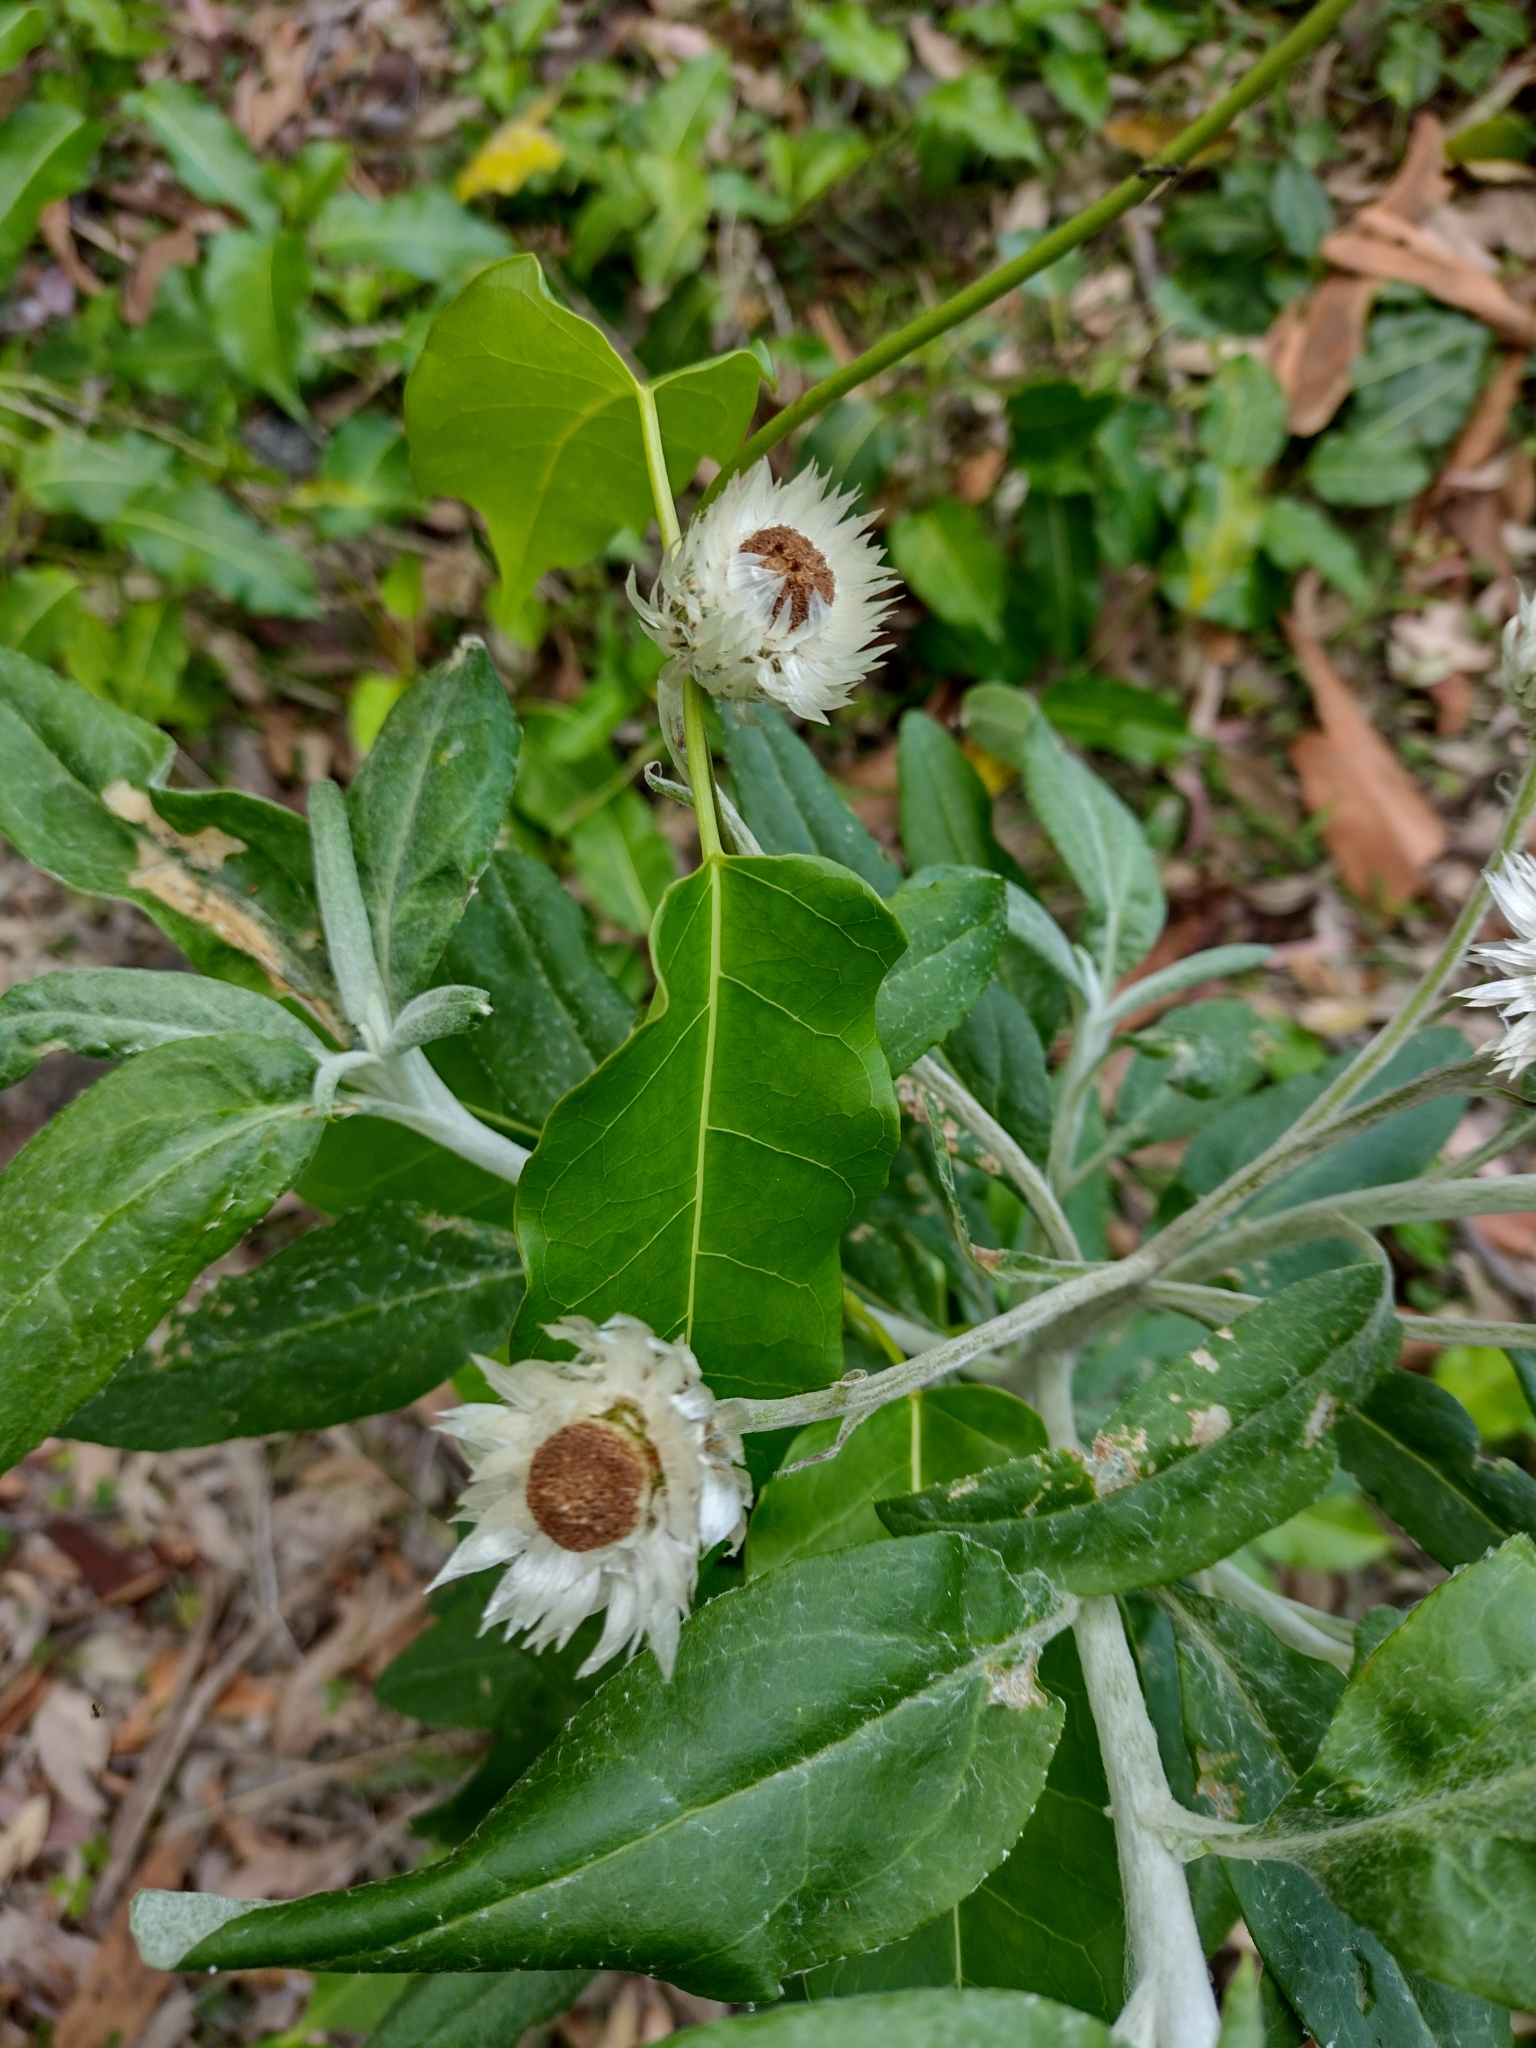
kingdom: Plantae
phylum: Tracheophyta
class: Magnoliopsida
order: Asterales
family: Asteraceae
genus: Leucozoma
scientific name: Leucozoma elatum
